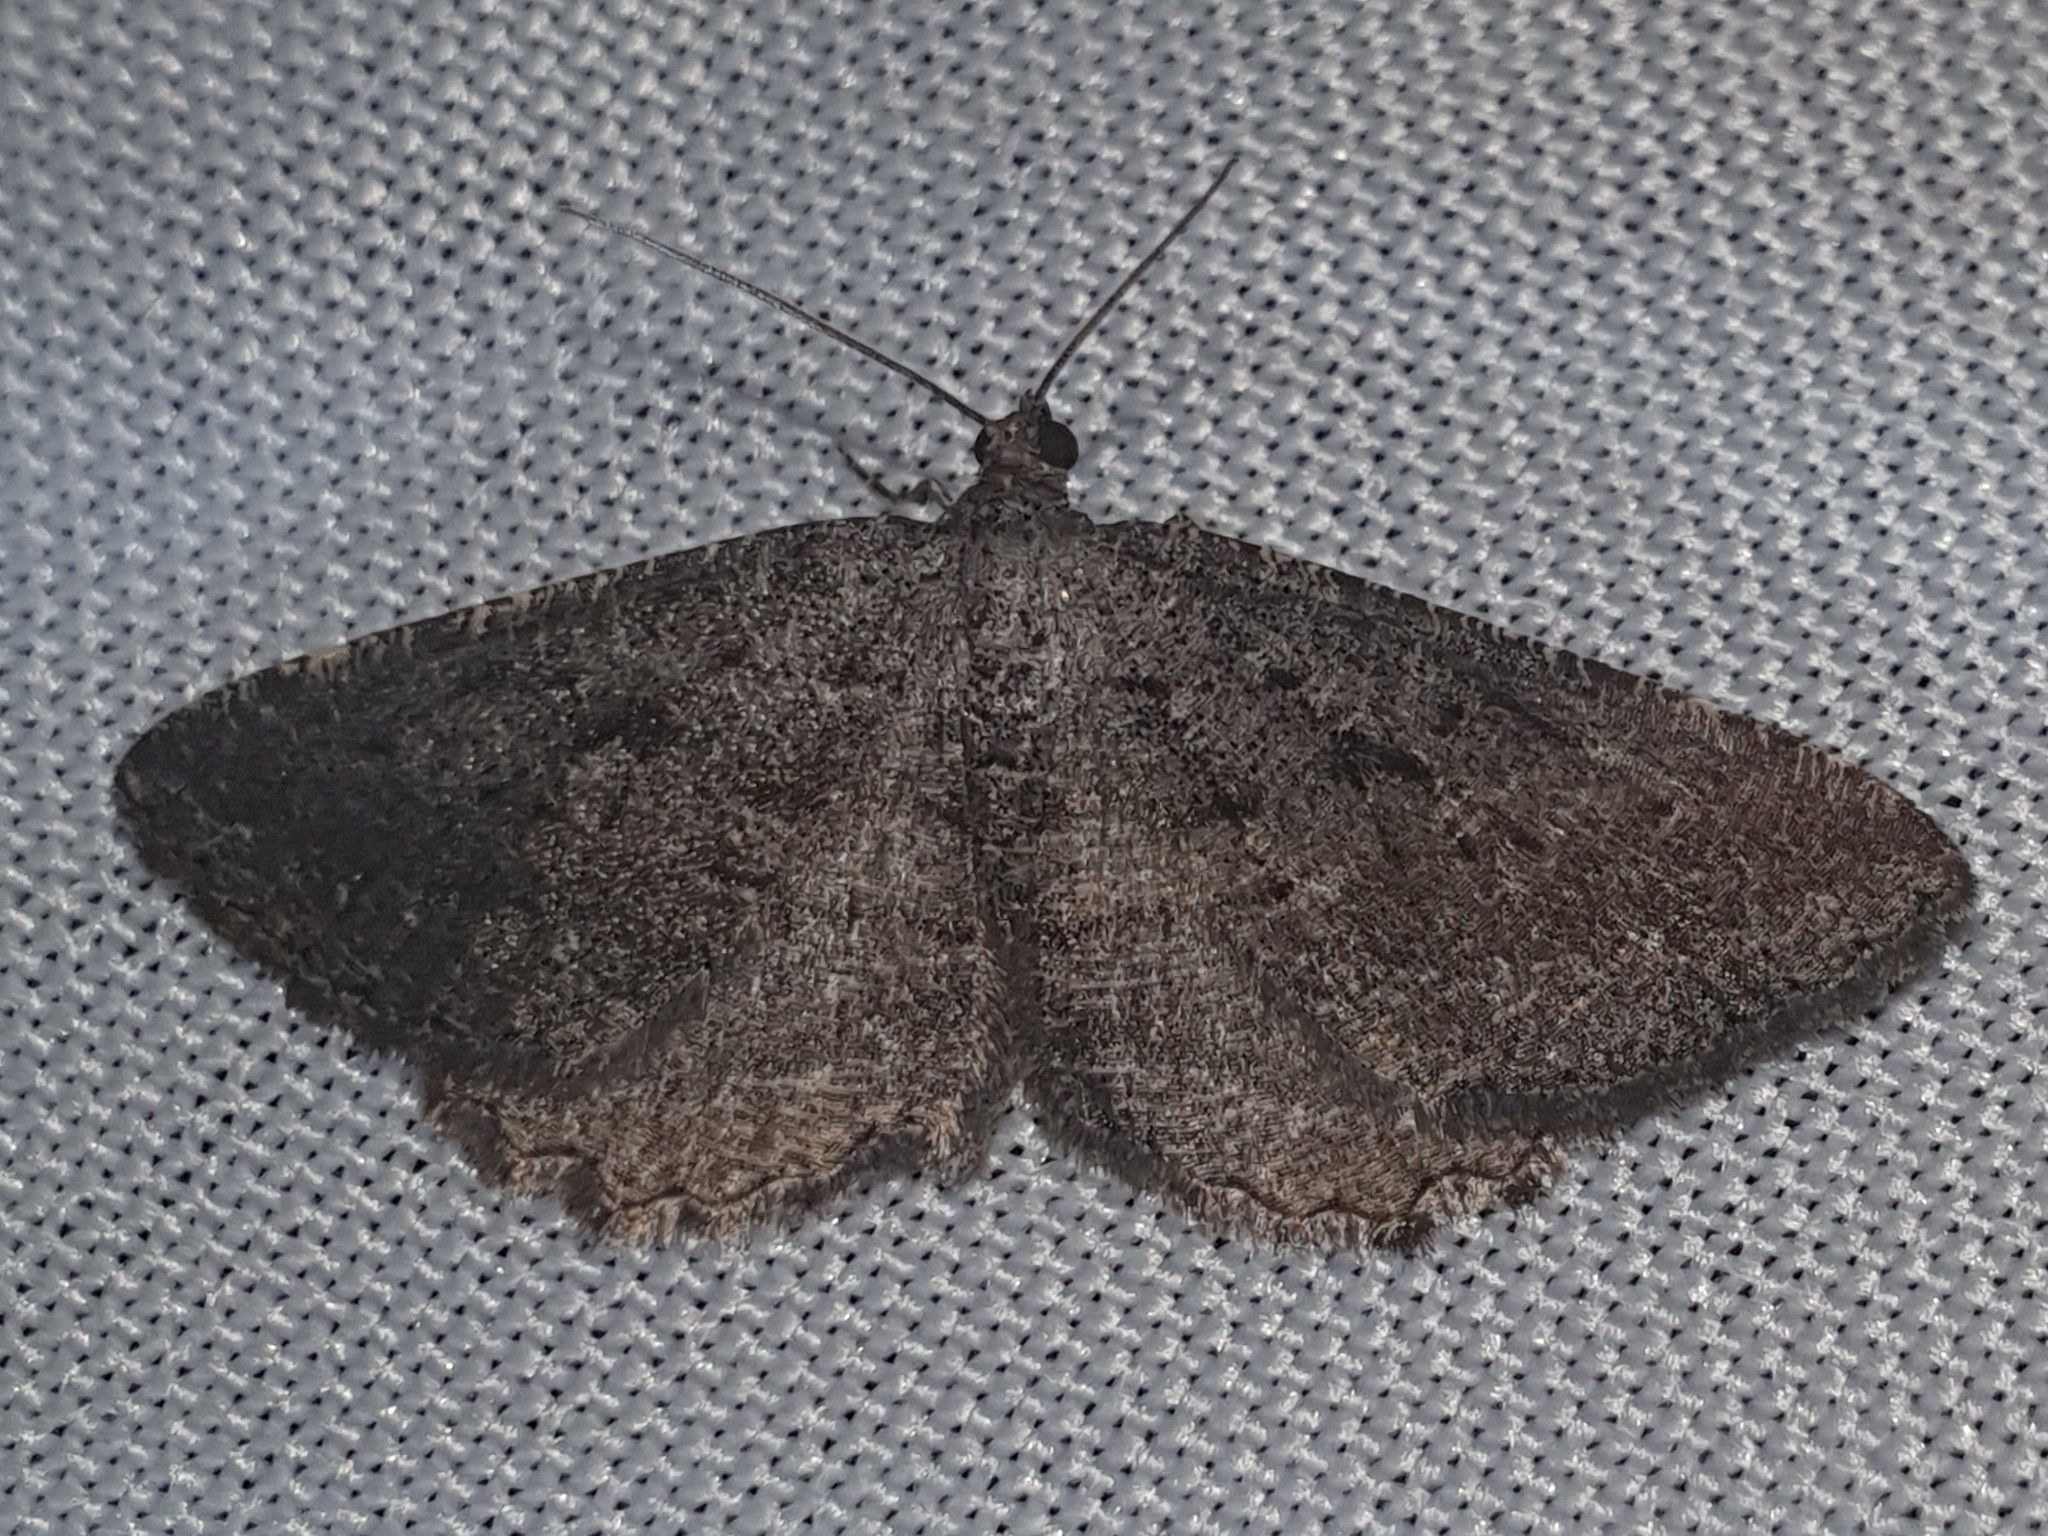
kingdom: Animalia
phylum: Arthropoda
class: Insecta
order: Lepidoptera
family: Geometridae
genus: Rhoptria
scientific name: Rhoptria asperaria
